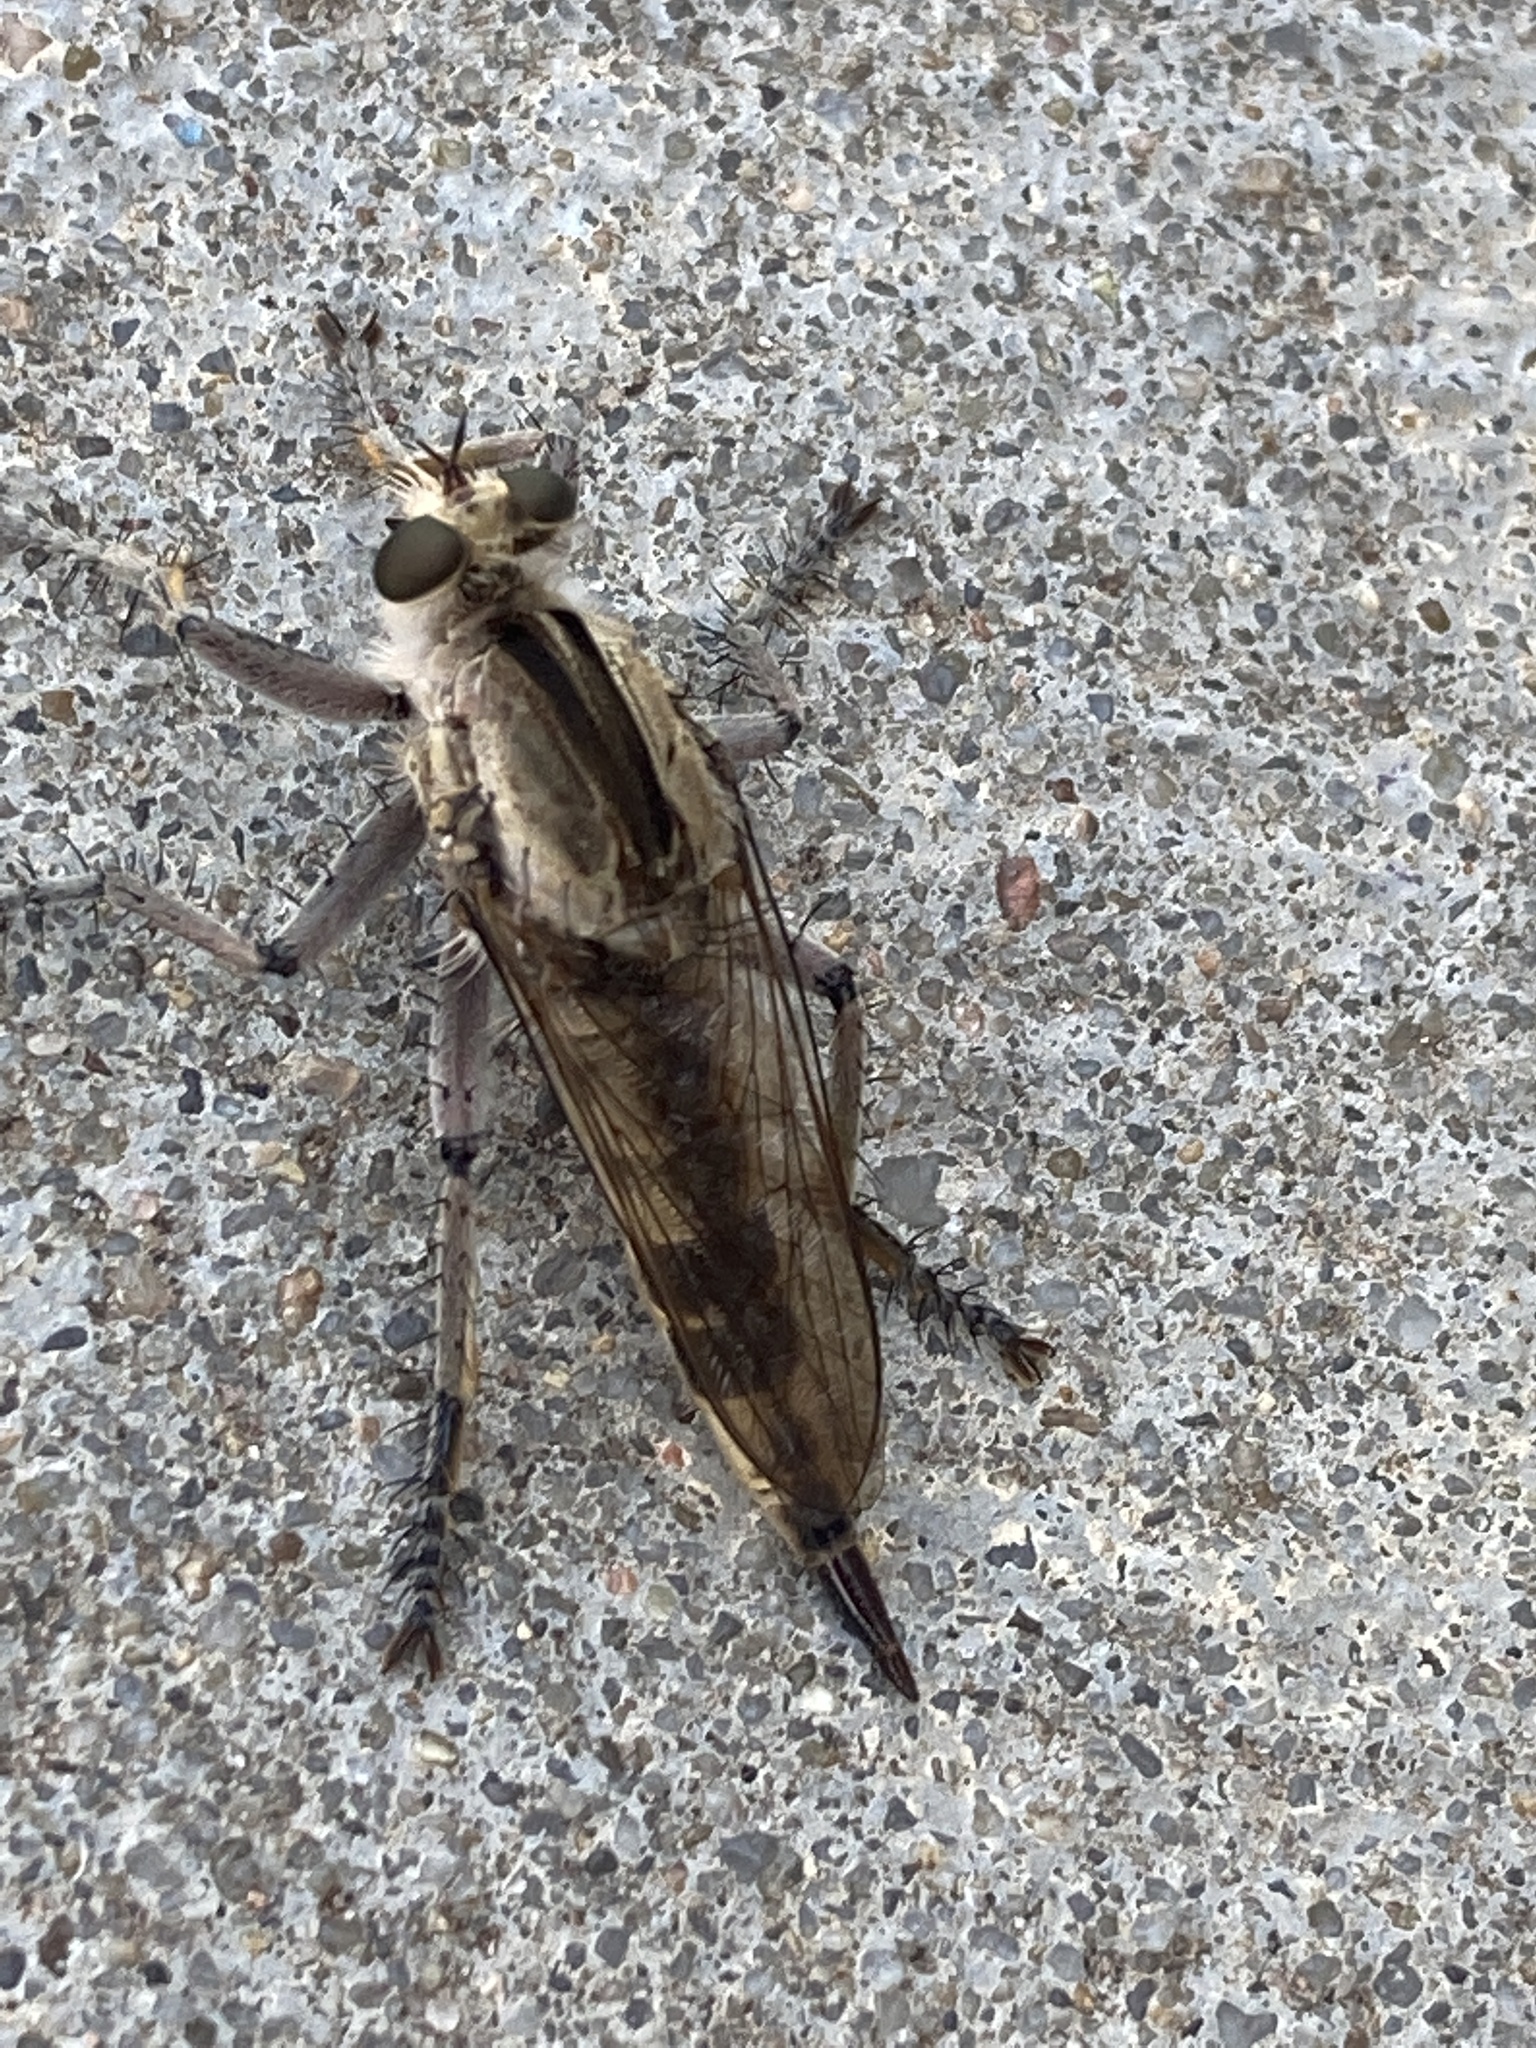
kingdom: Animalia
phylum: Arthropoda
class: Insecta
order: Diptera
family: Asilidae
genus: Triorla
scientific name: Triorla interrupta
